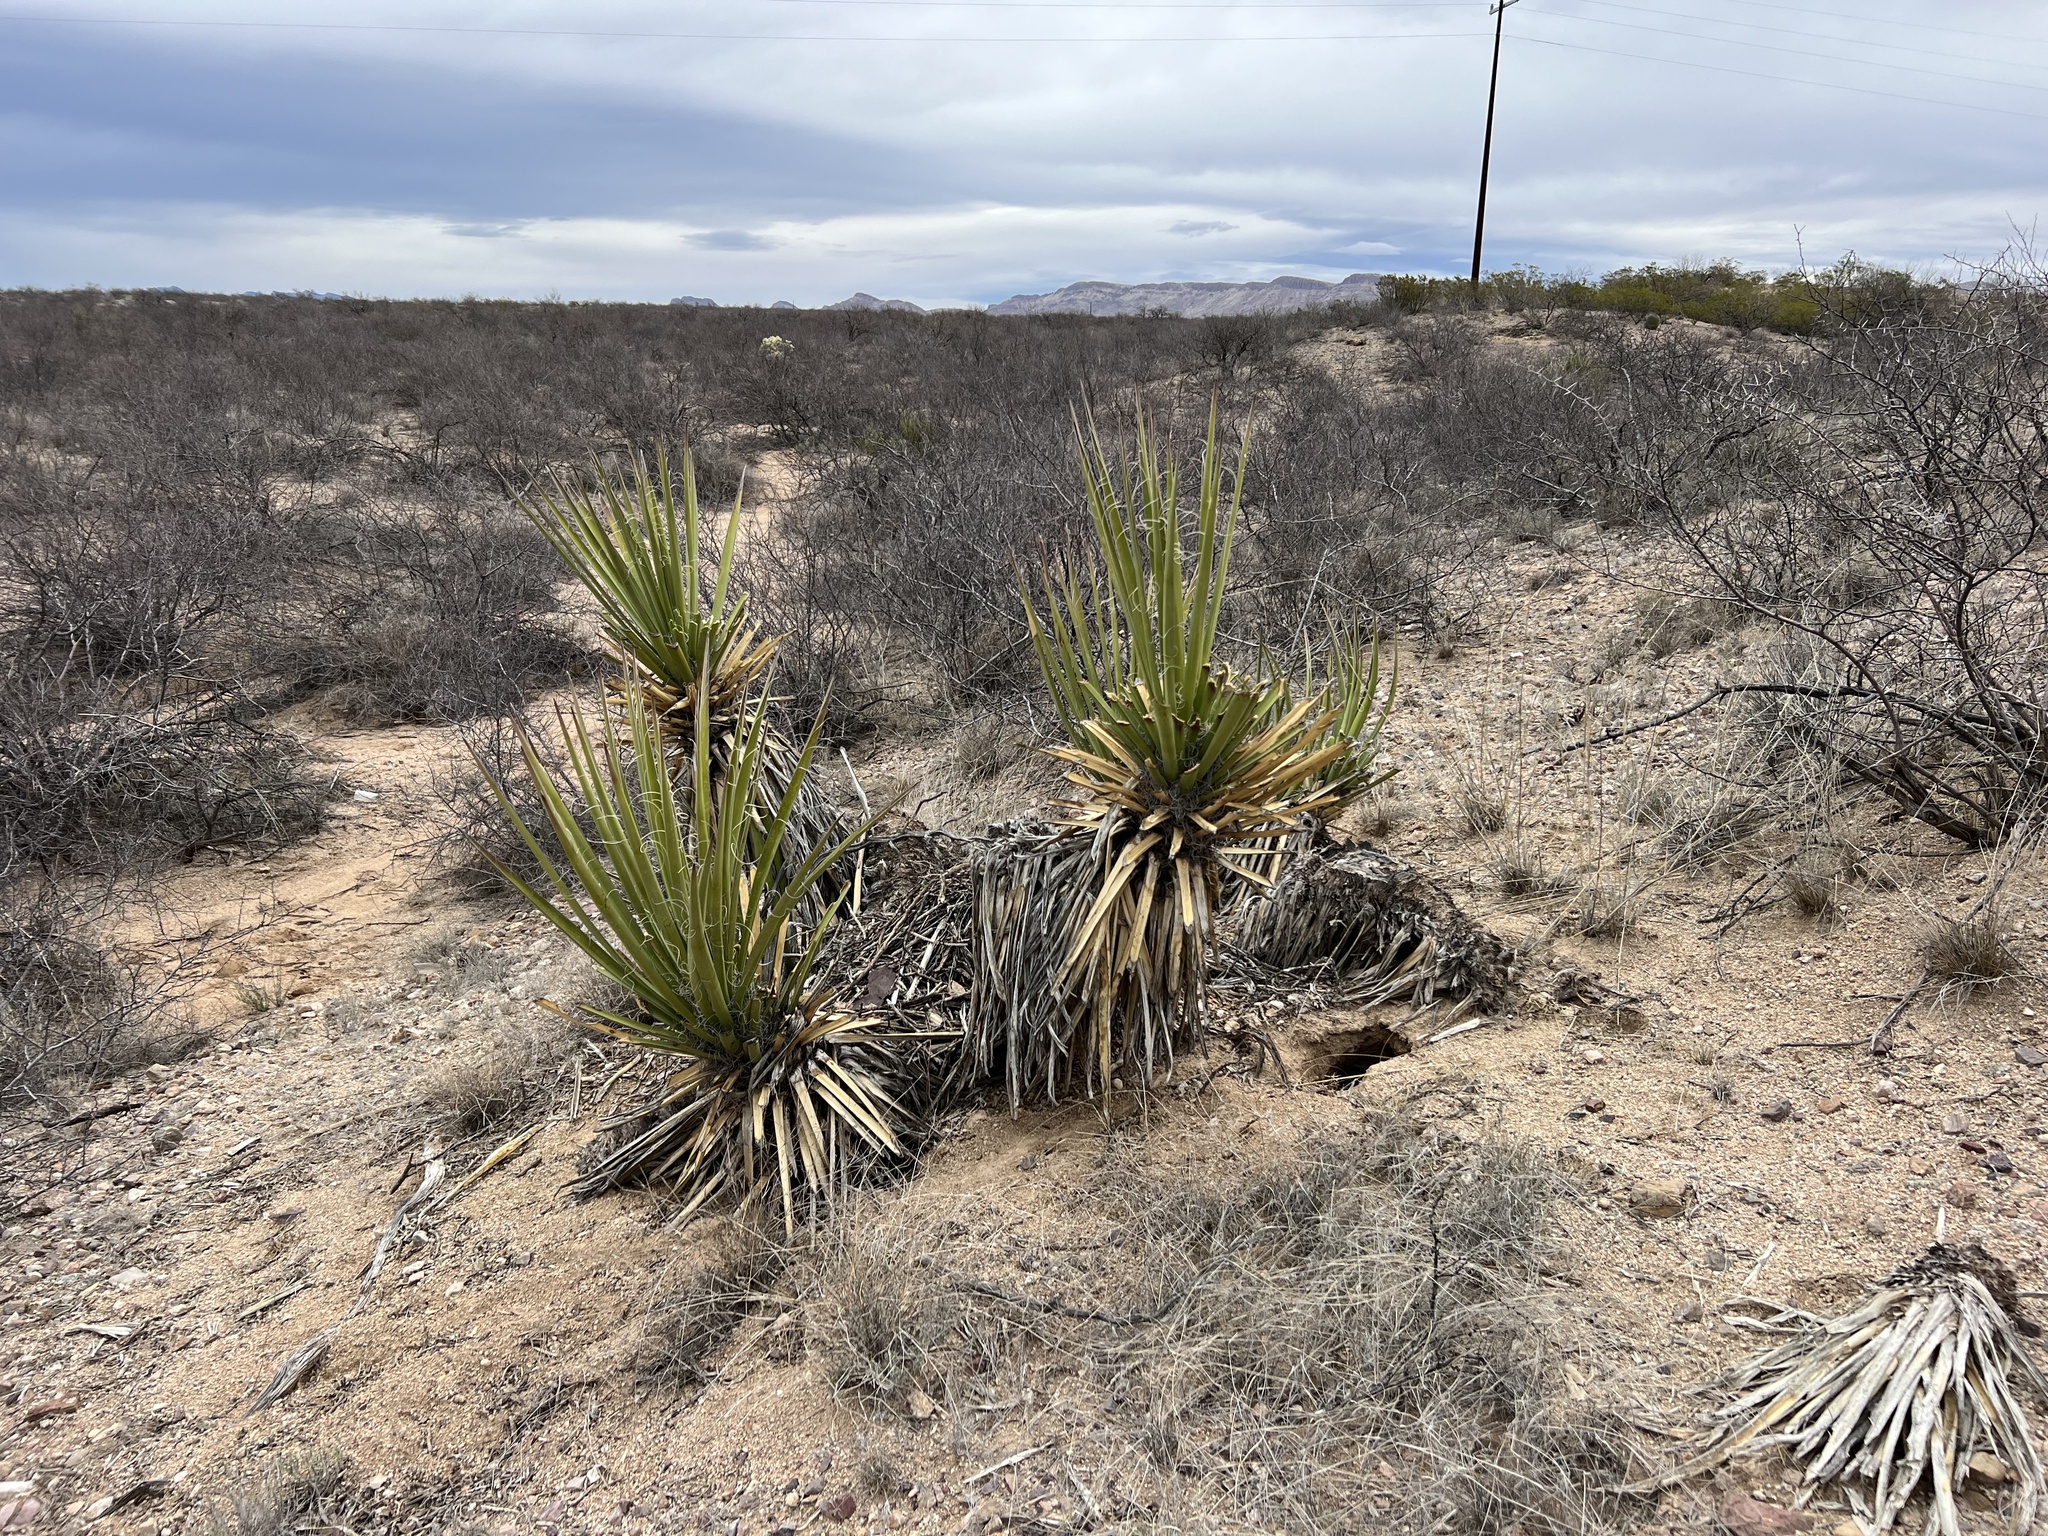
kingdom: Plantae
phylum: Tracheophyta
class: Liliopsida
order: Asparagales
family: Asparagaceae
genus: Yucca
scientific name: Yucca baccata
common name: Banana yucca
